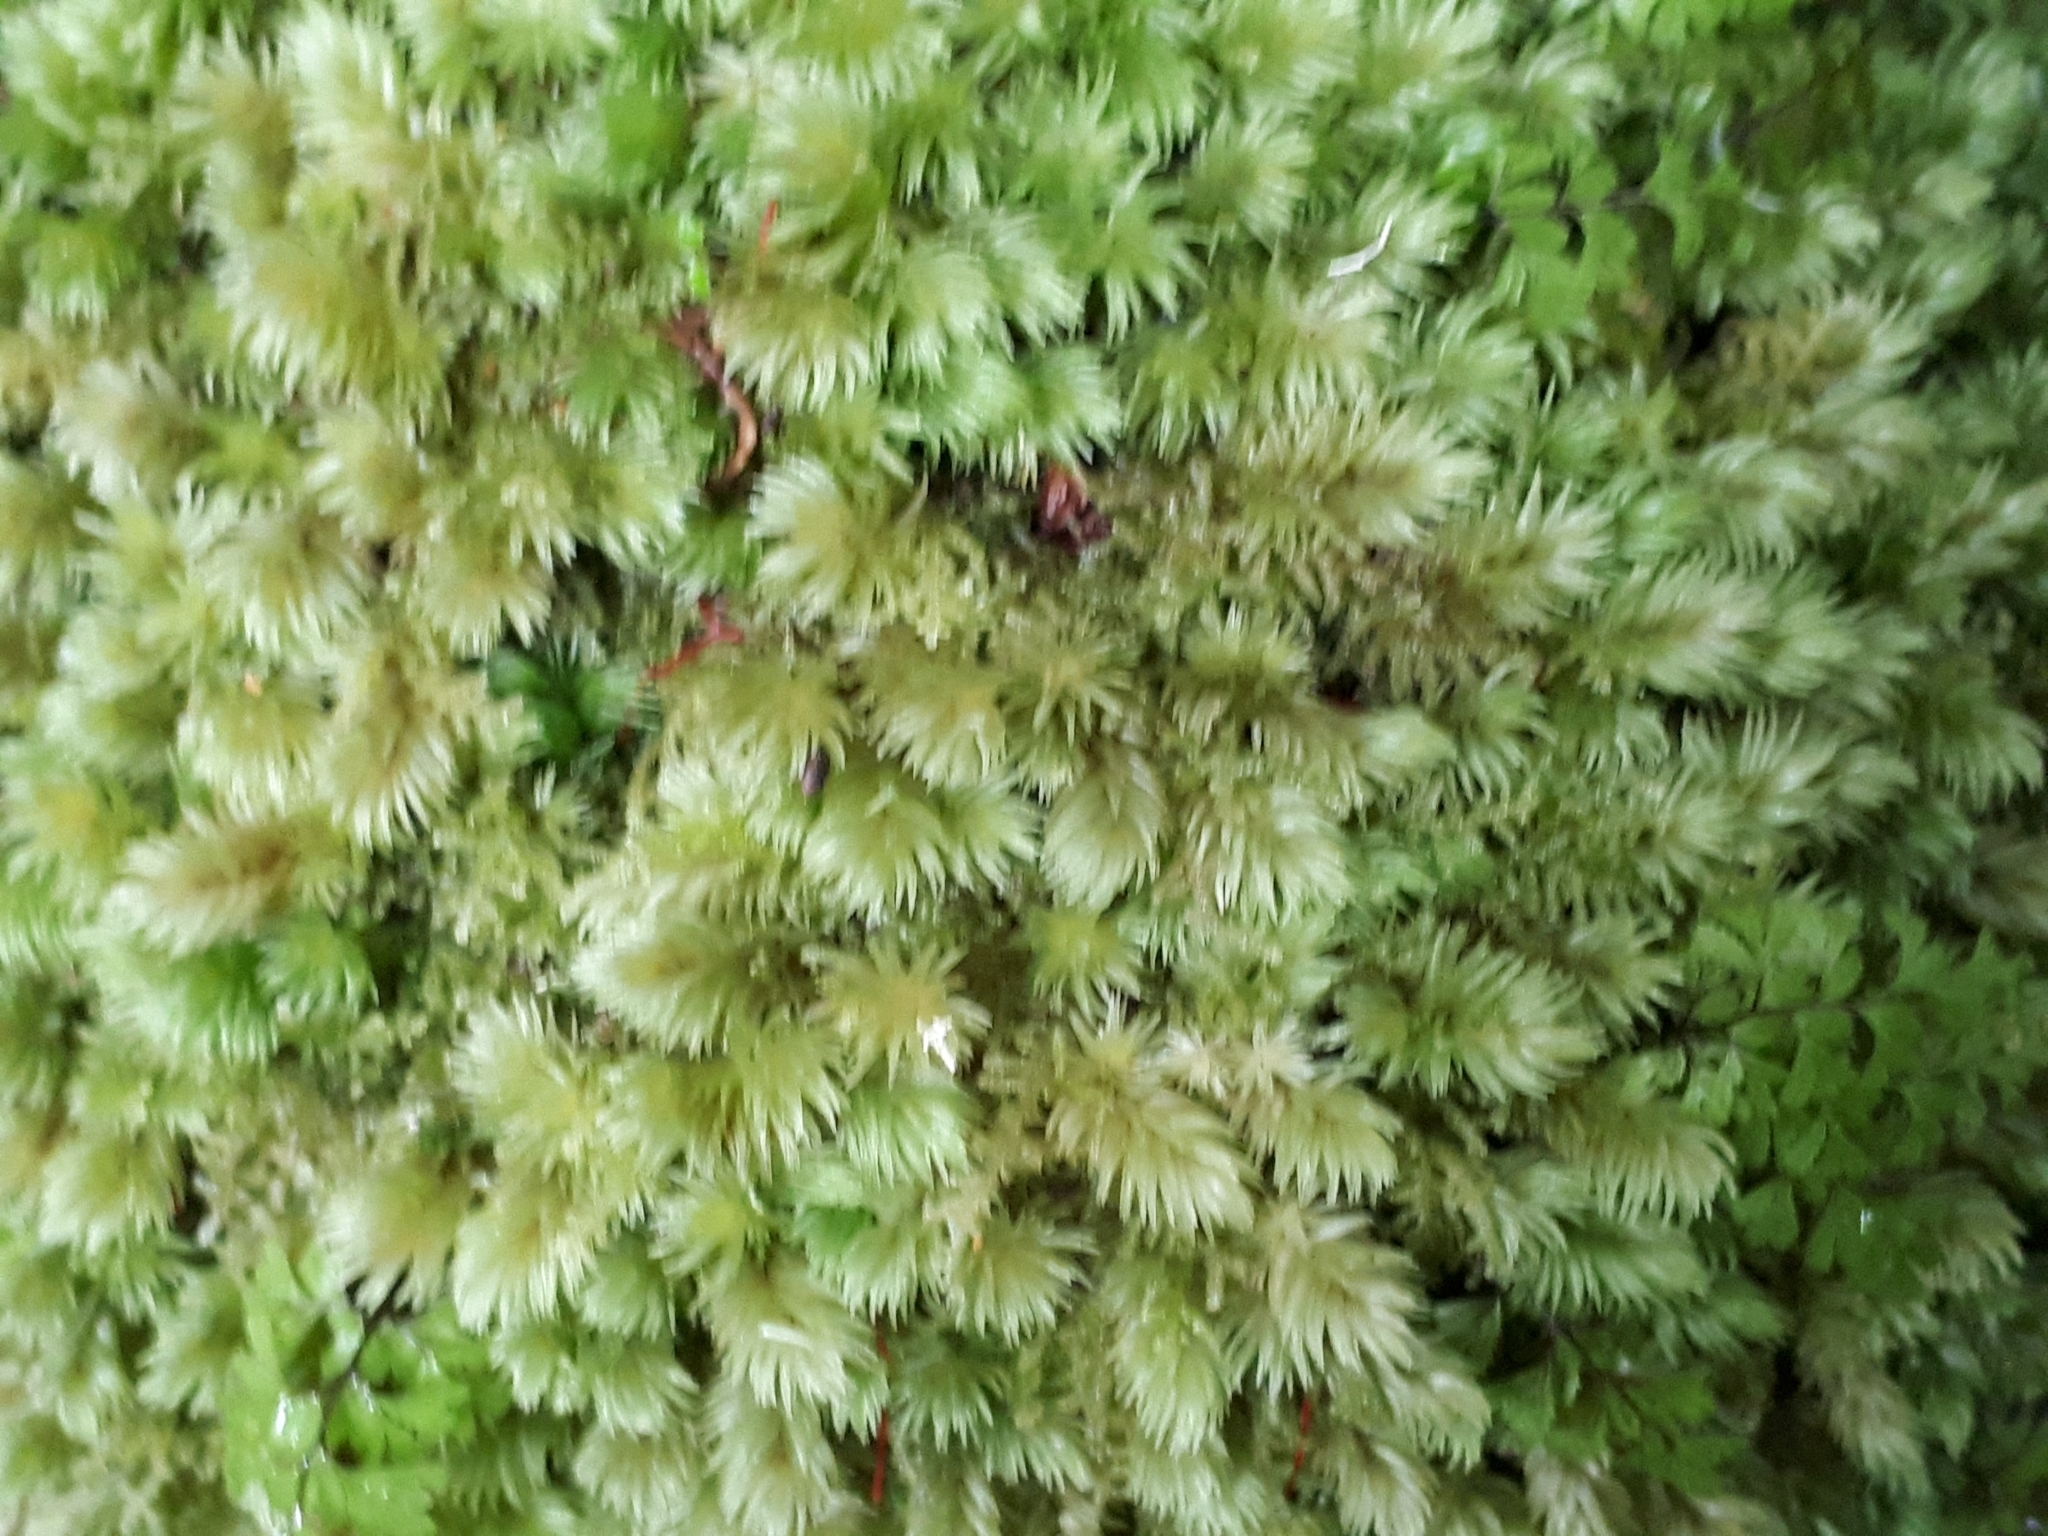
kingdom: Plantae
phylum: Bryophyta
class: Bryopsida
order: Dicranales
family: Leucobryaceae
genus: Leucobryum
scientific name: Leucobryum javense
